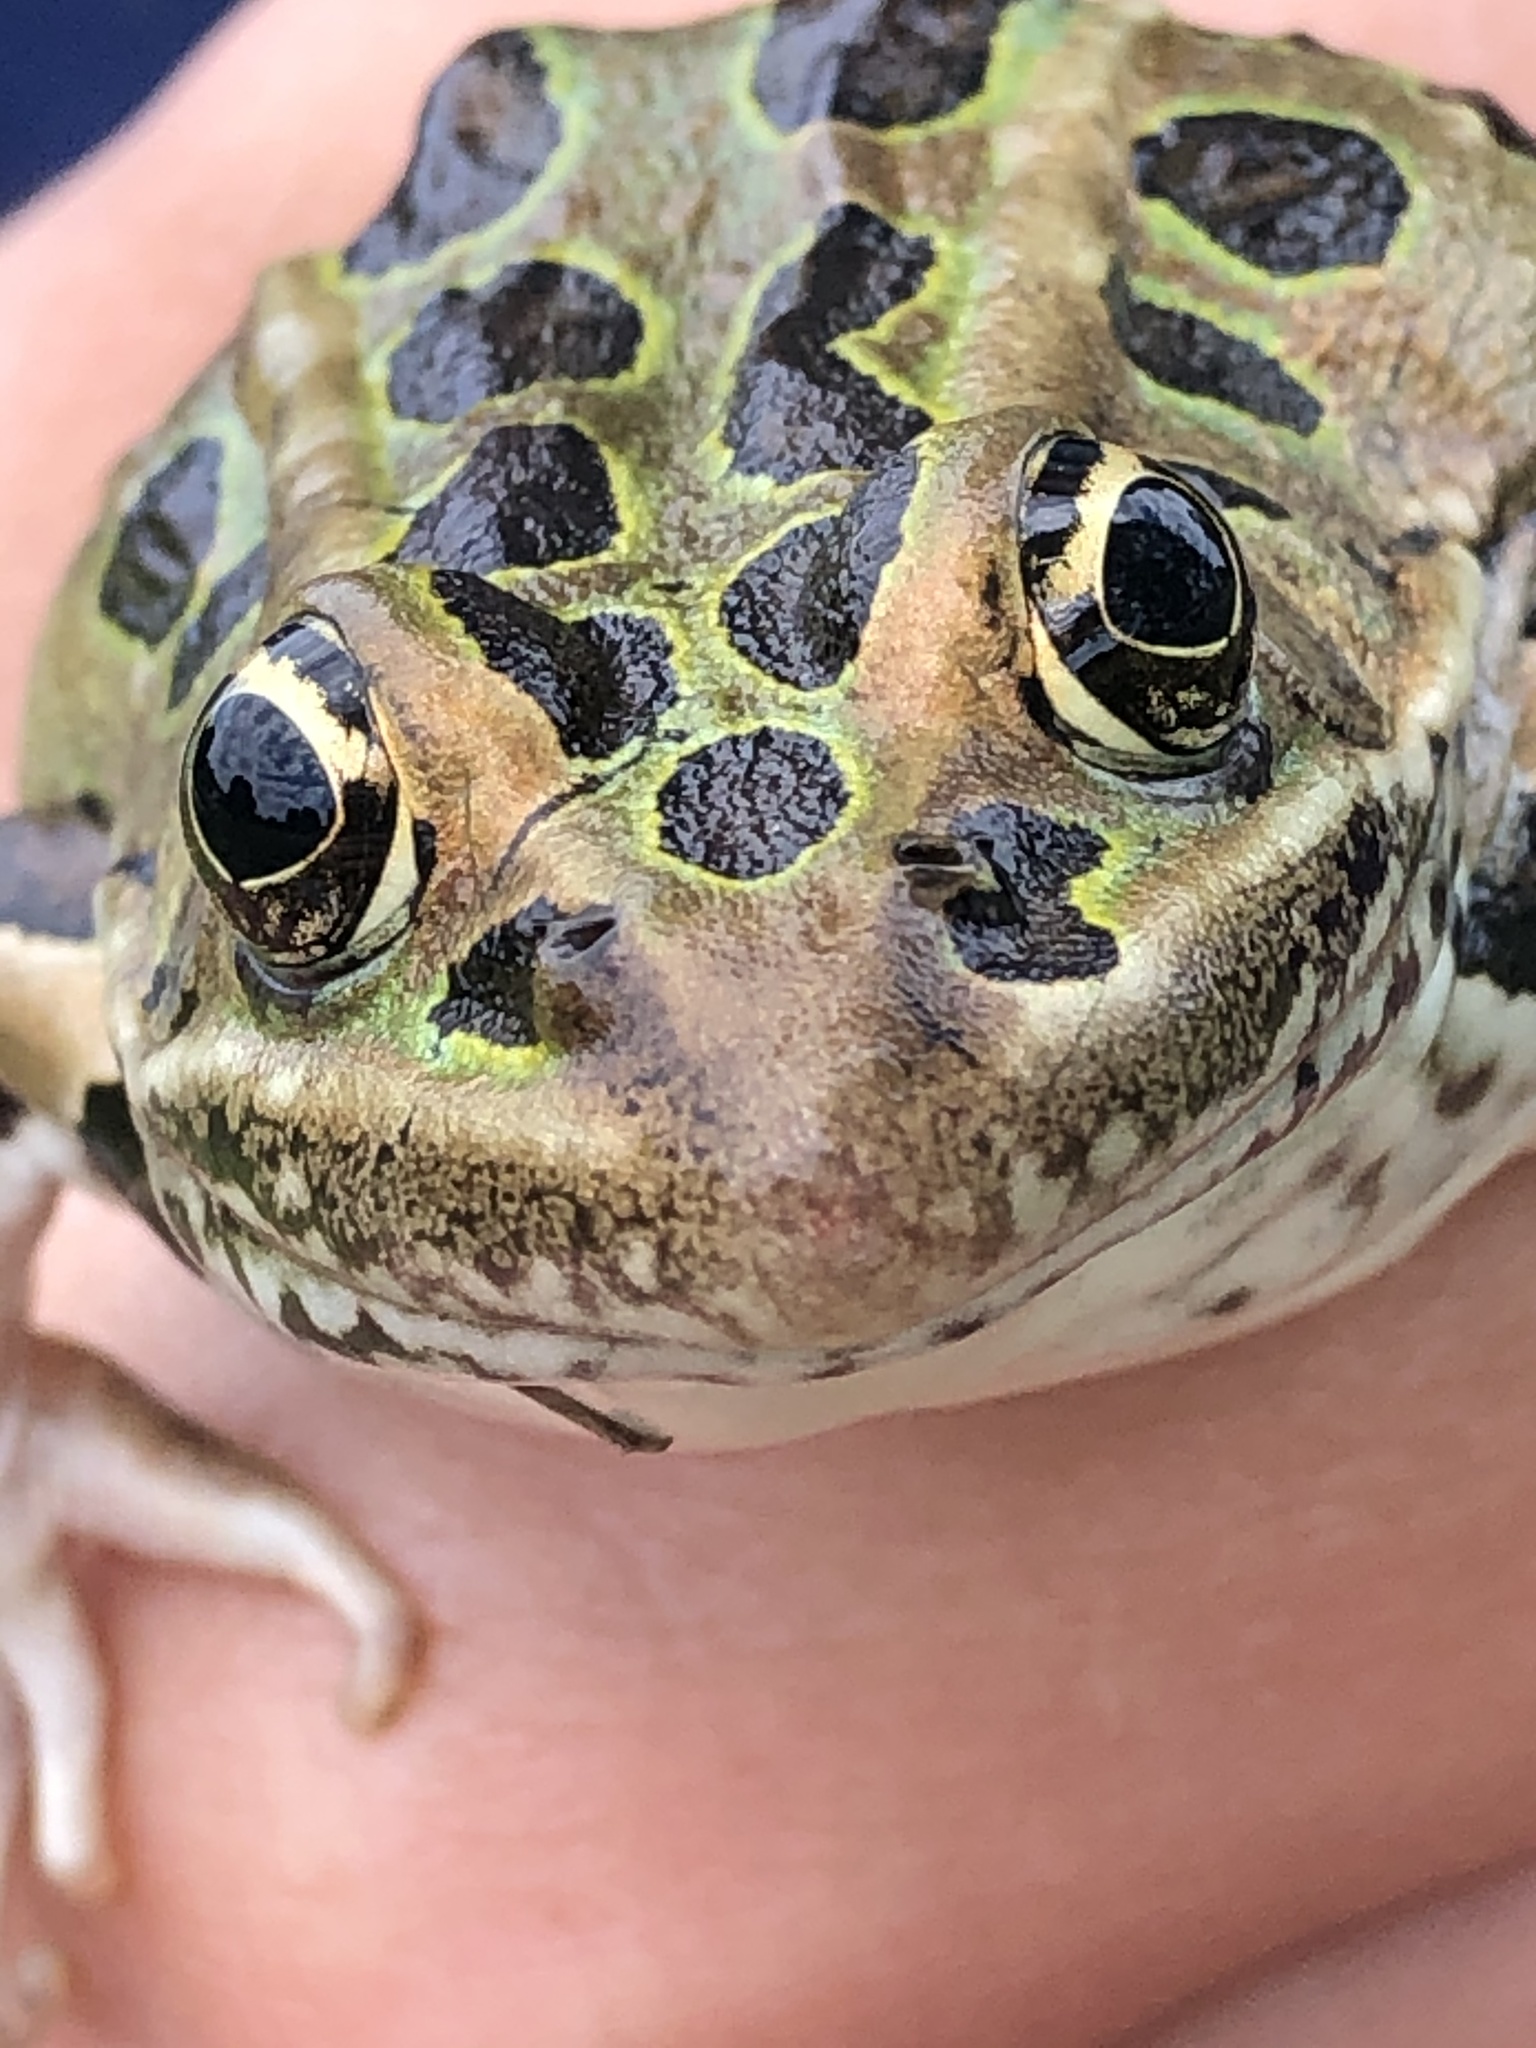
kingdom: Animalia
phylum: Chordata
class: Amphibia
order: Anura
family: Ranidae
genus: Lithobates
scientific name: Lithobates pipiens
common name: Northern leopard frog
